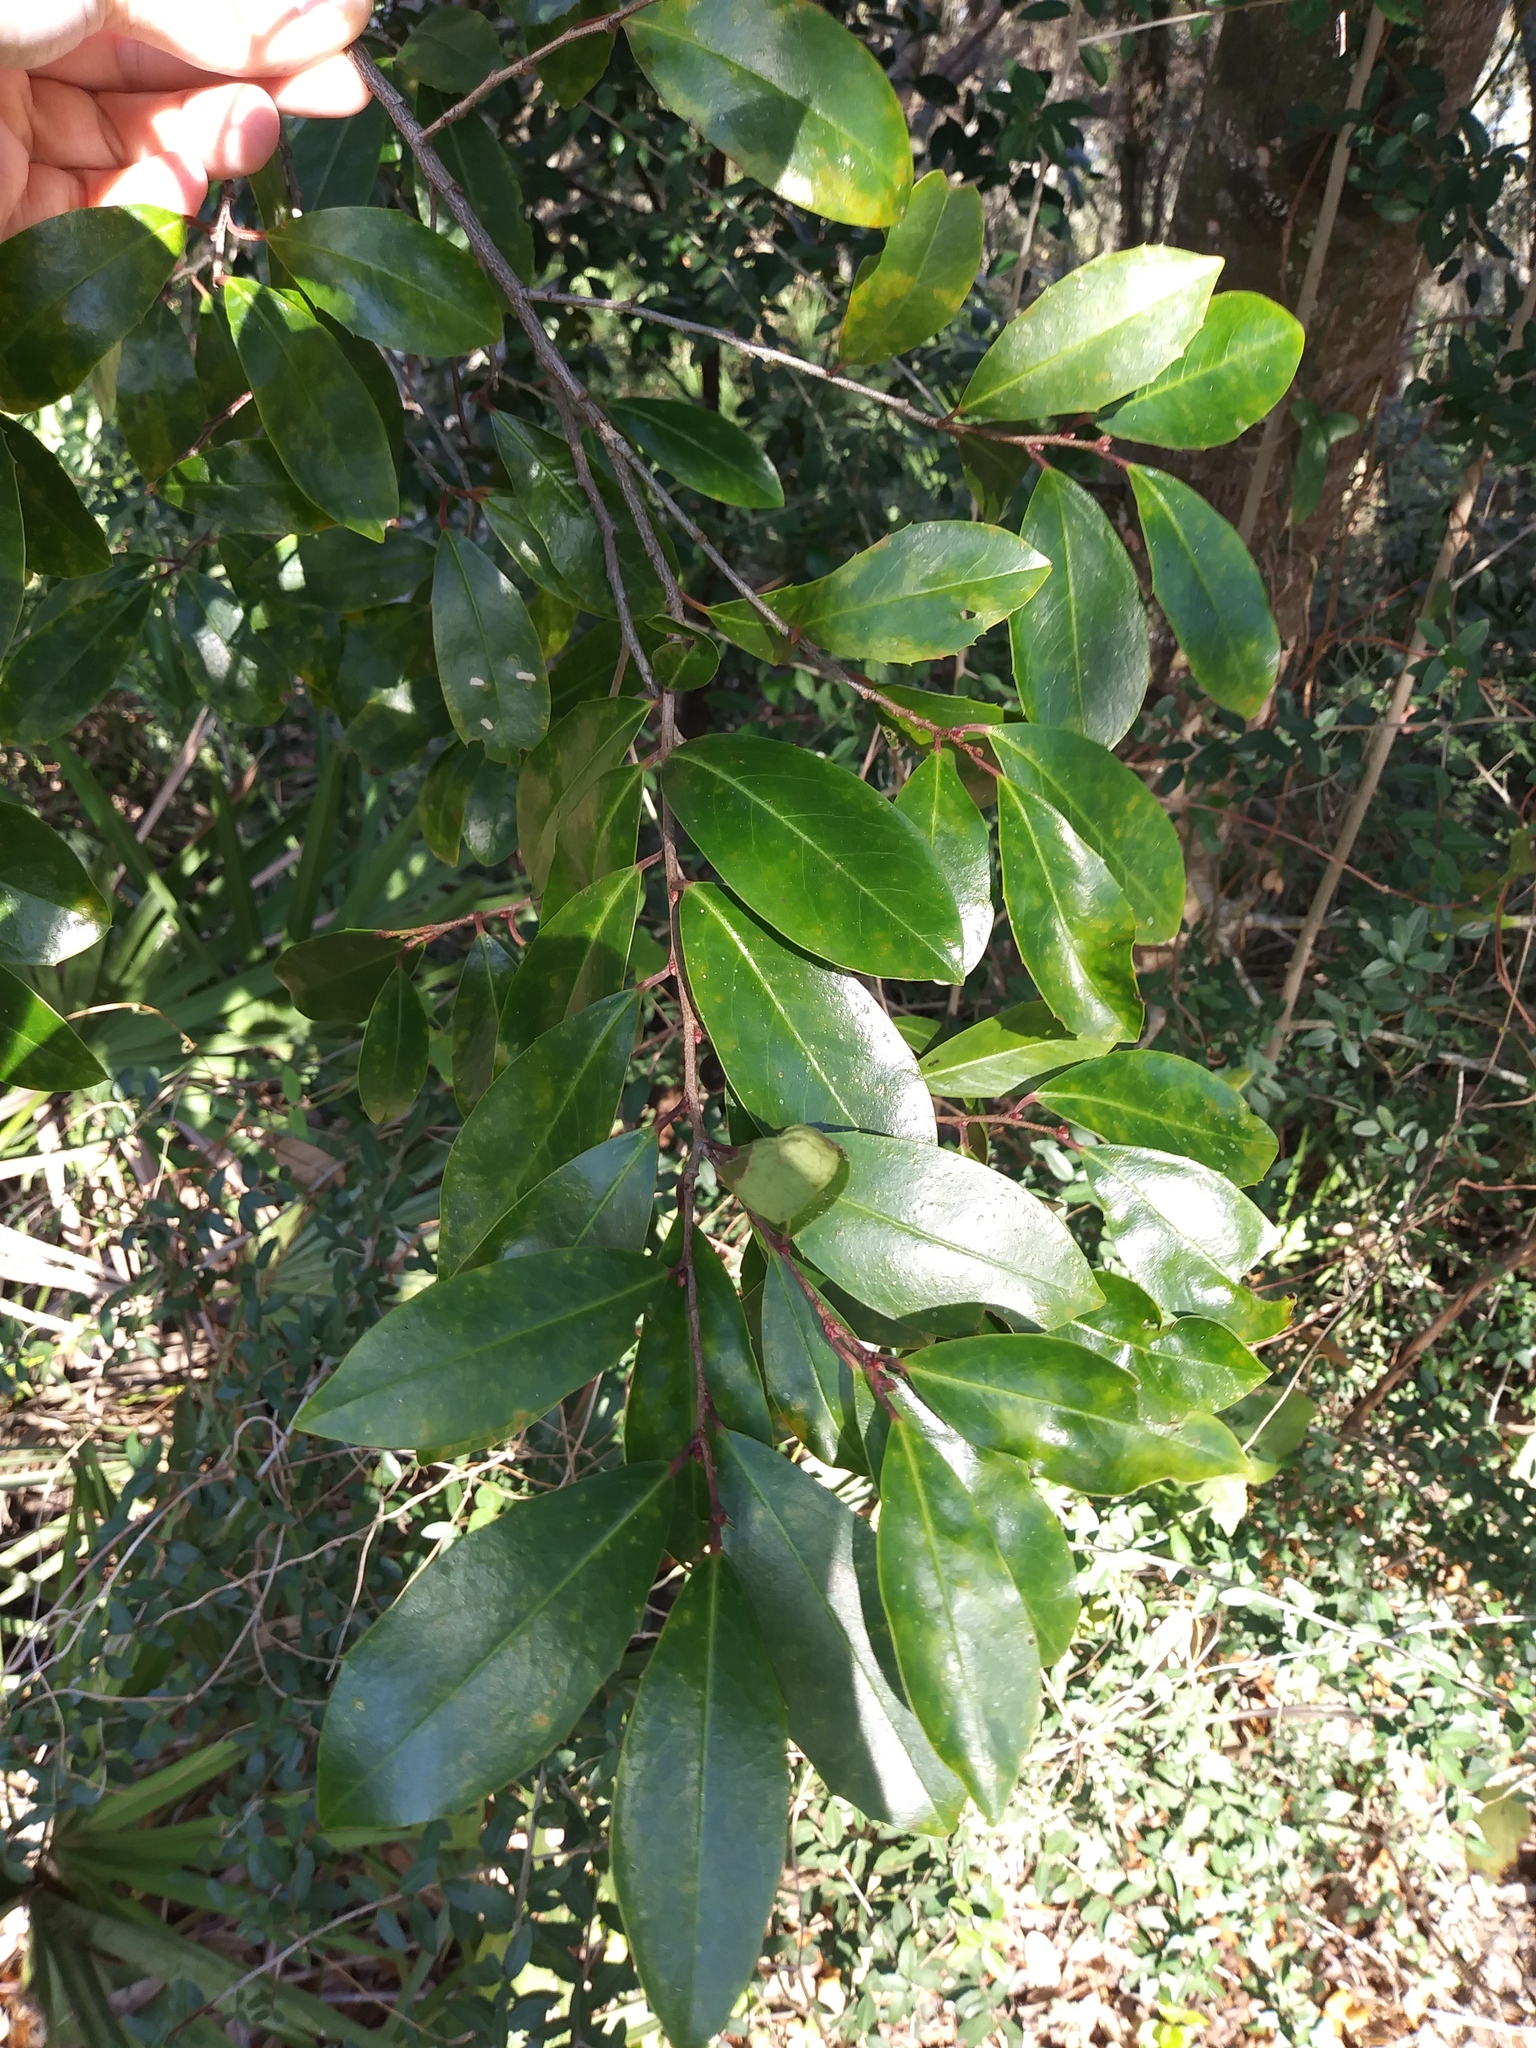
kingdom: Plantae
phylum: Tracheophyta
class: Magnoliopsida
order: Rosales
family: Rosaceae
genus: Prunus
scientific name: Prunus caroliniana
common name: Carolina laurel cherry
